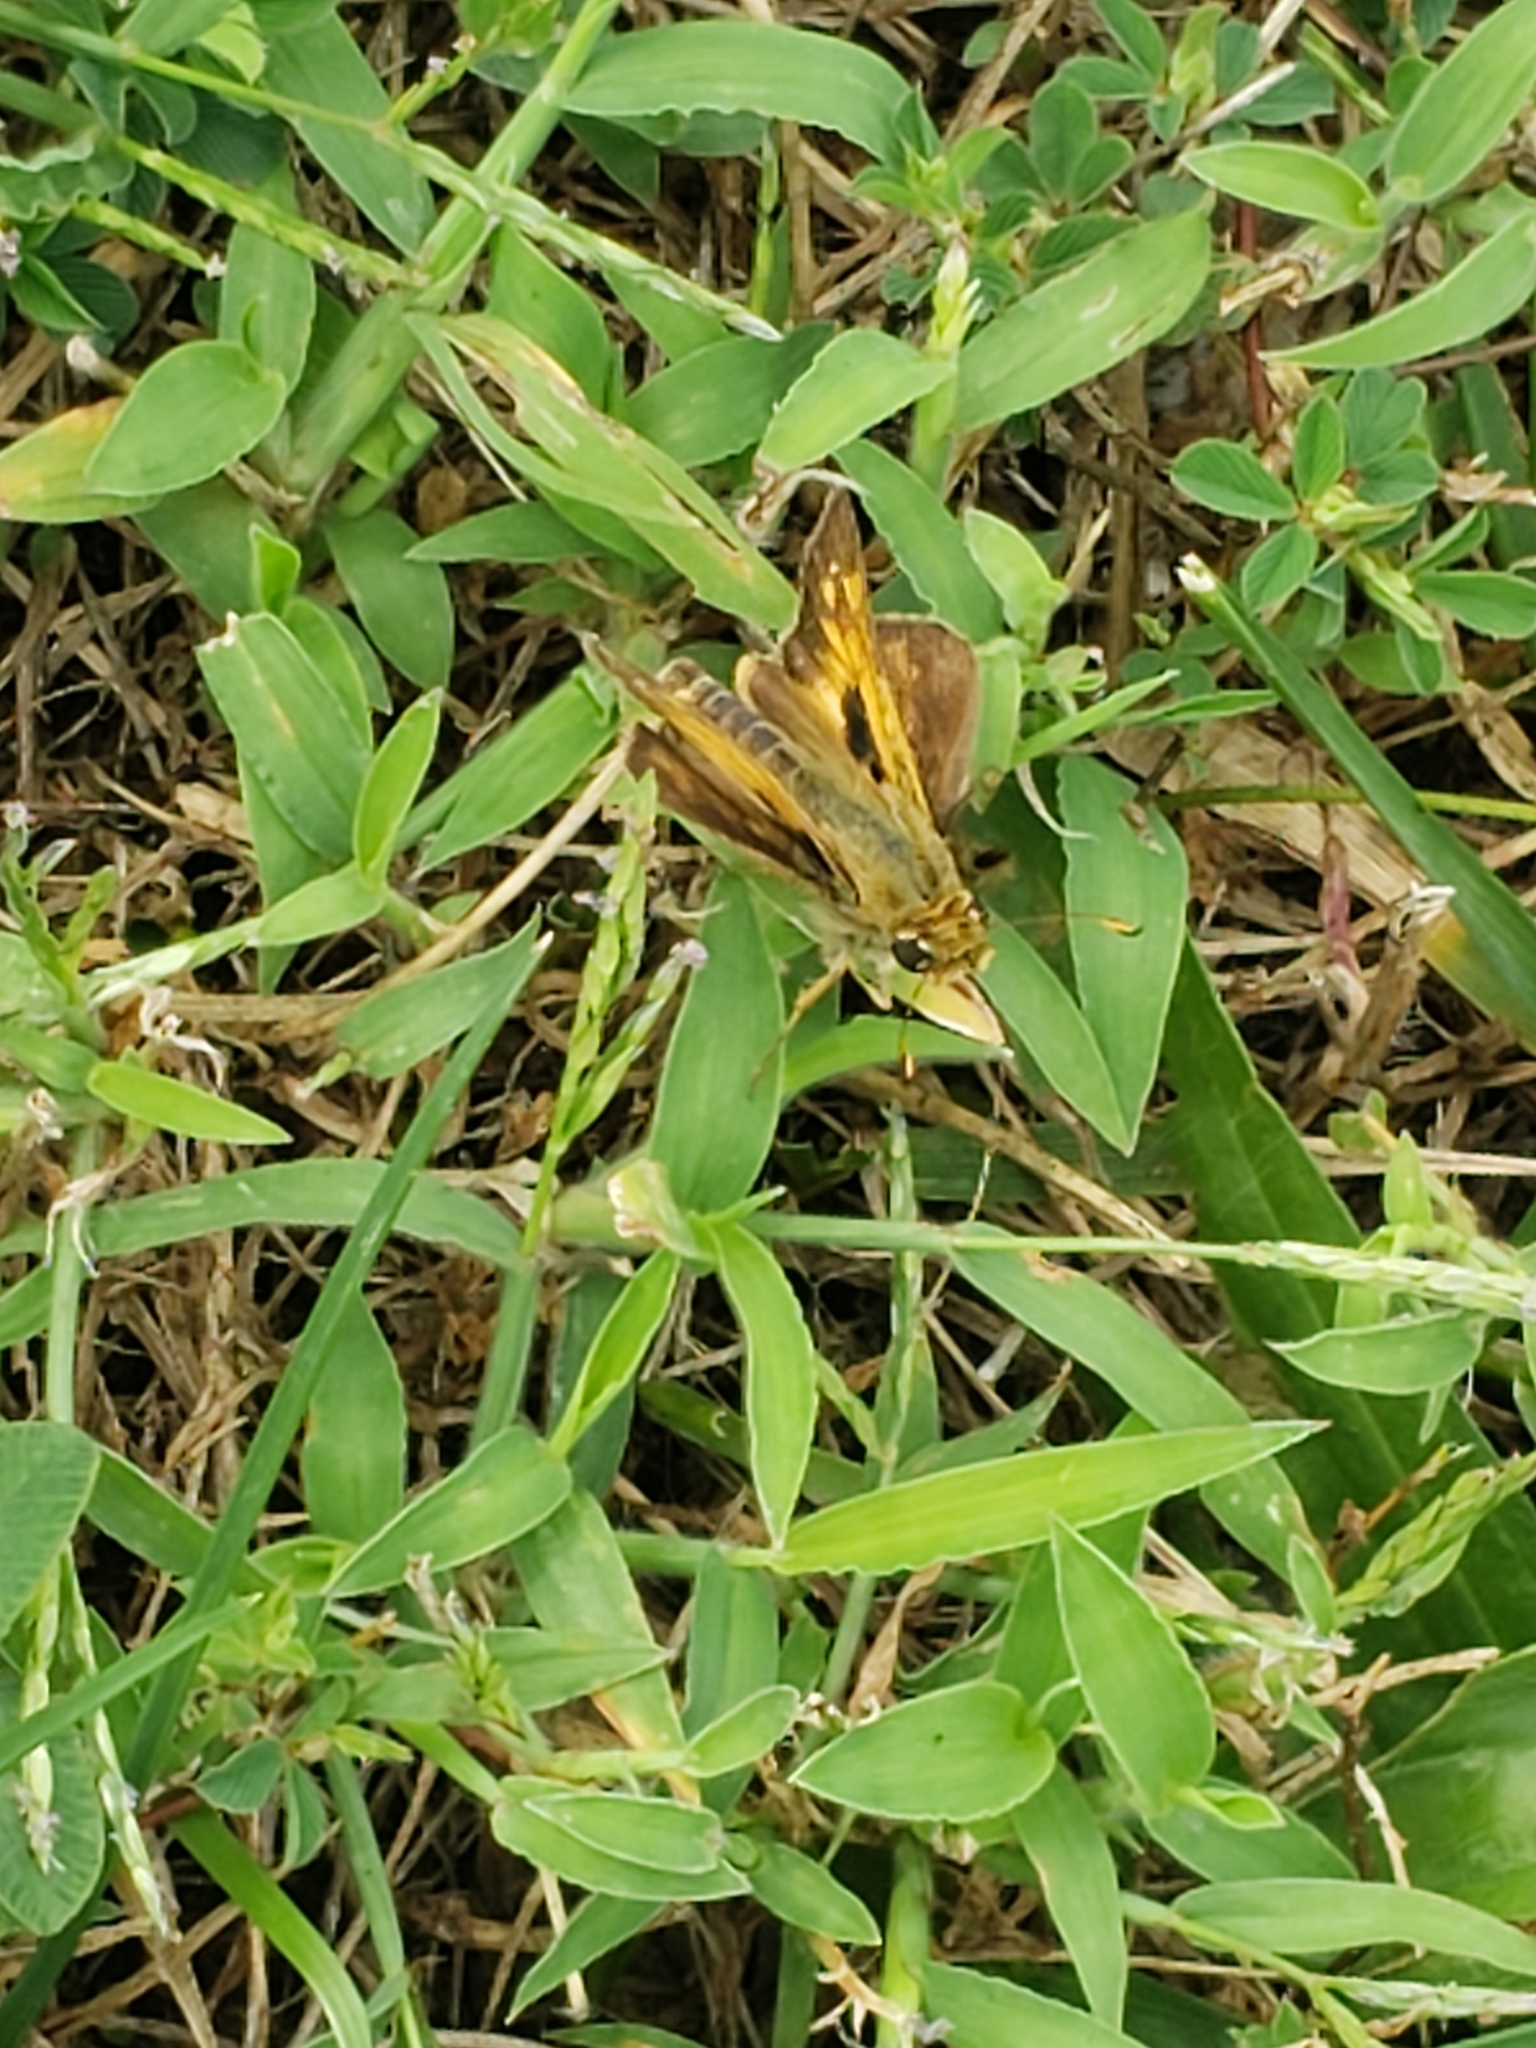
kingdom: Animalia
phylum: Arthropoda
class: Insecta
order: Lepidoptera
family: Hesperiidae
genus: Atalopedes
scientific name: Atalopedes
